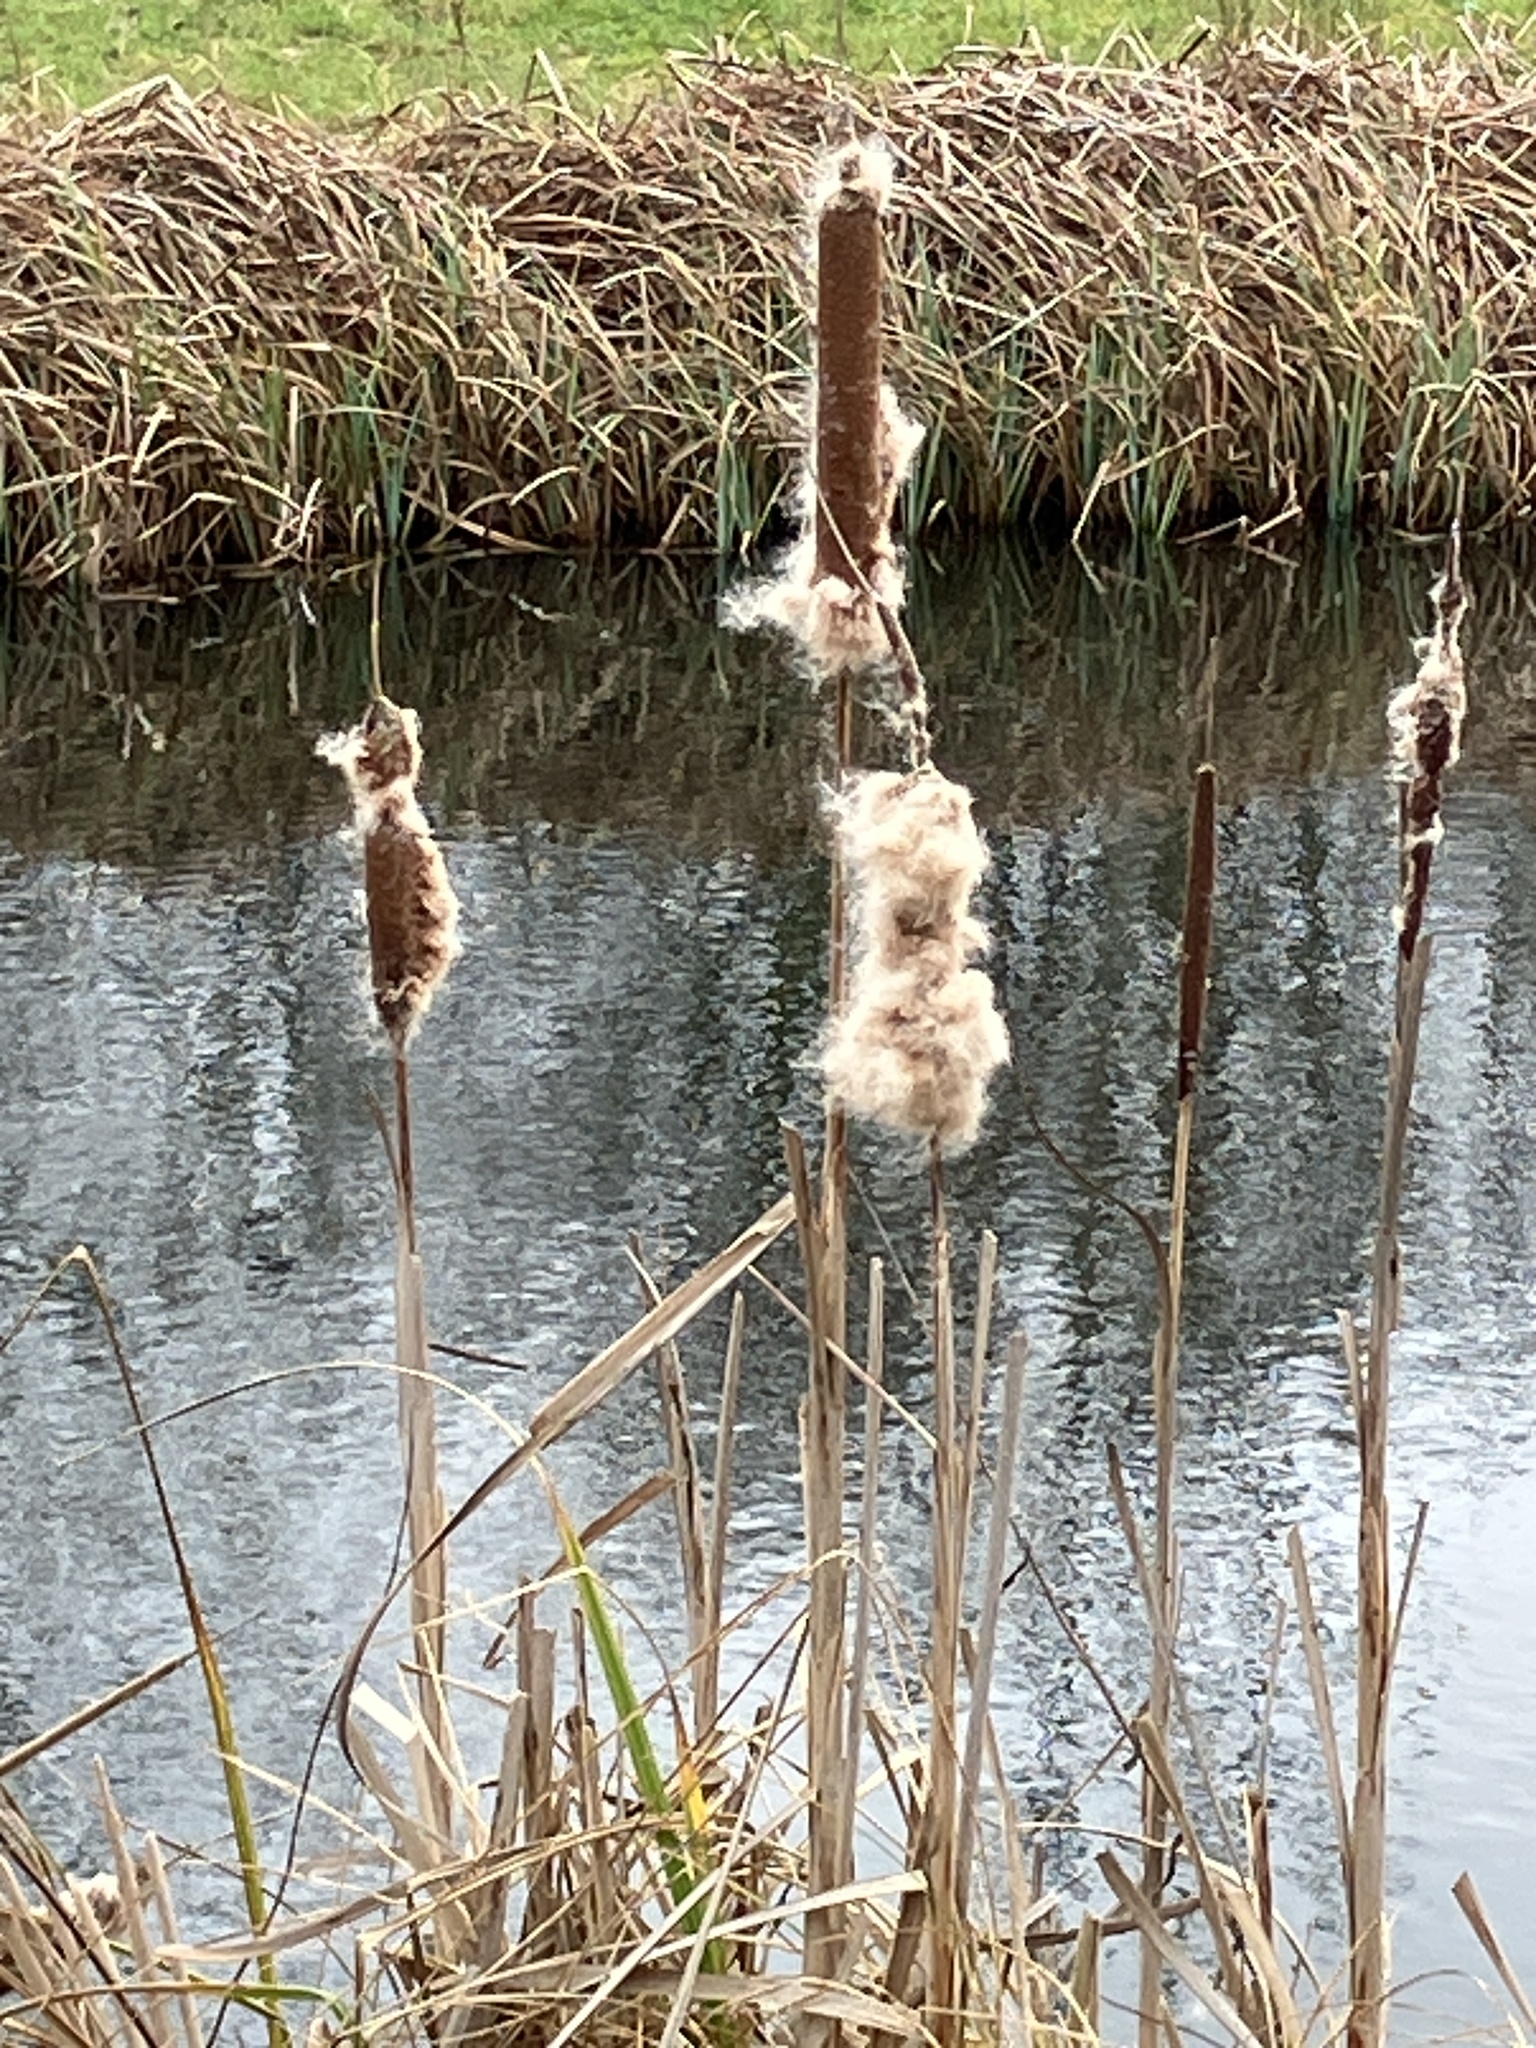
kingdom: Plantae
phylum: Tracheophyta
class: Liliopsida
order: Poales
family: Typhaceae
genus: Typha
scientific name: Typha latifolia
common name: Broadleaf cattail
